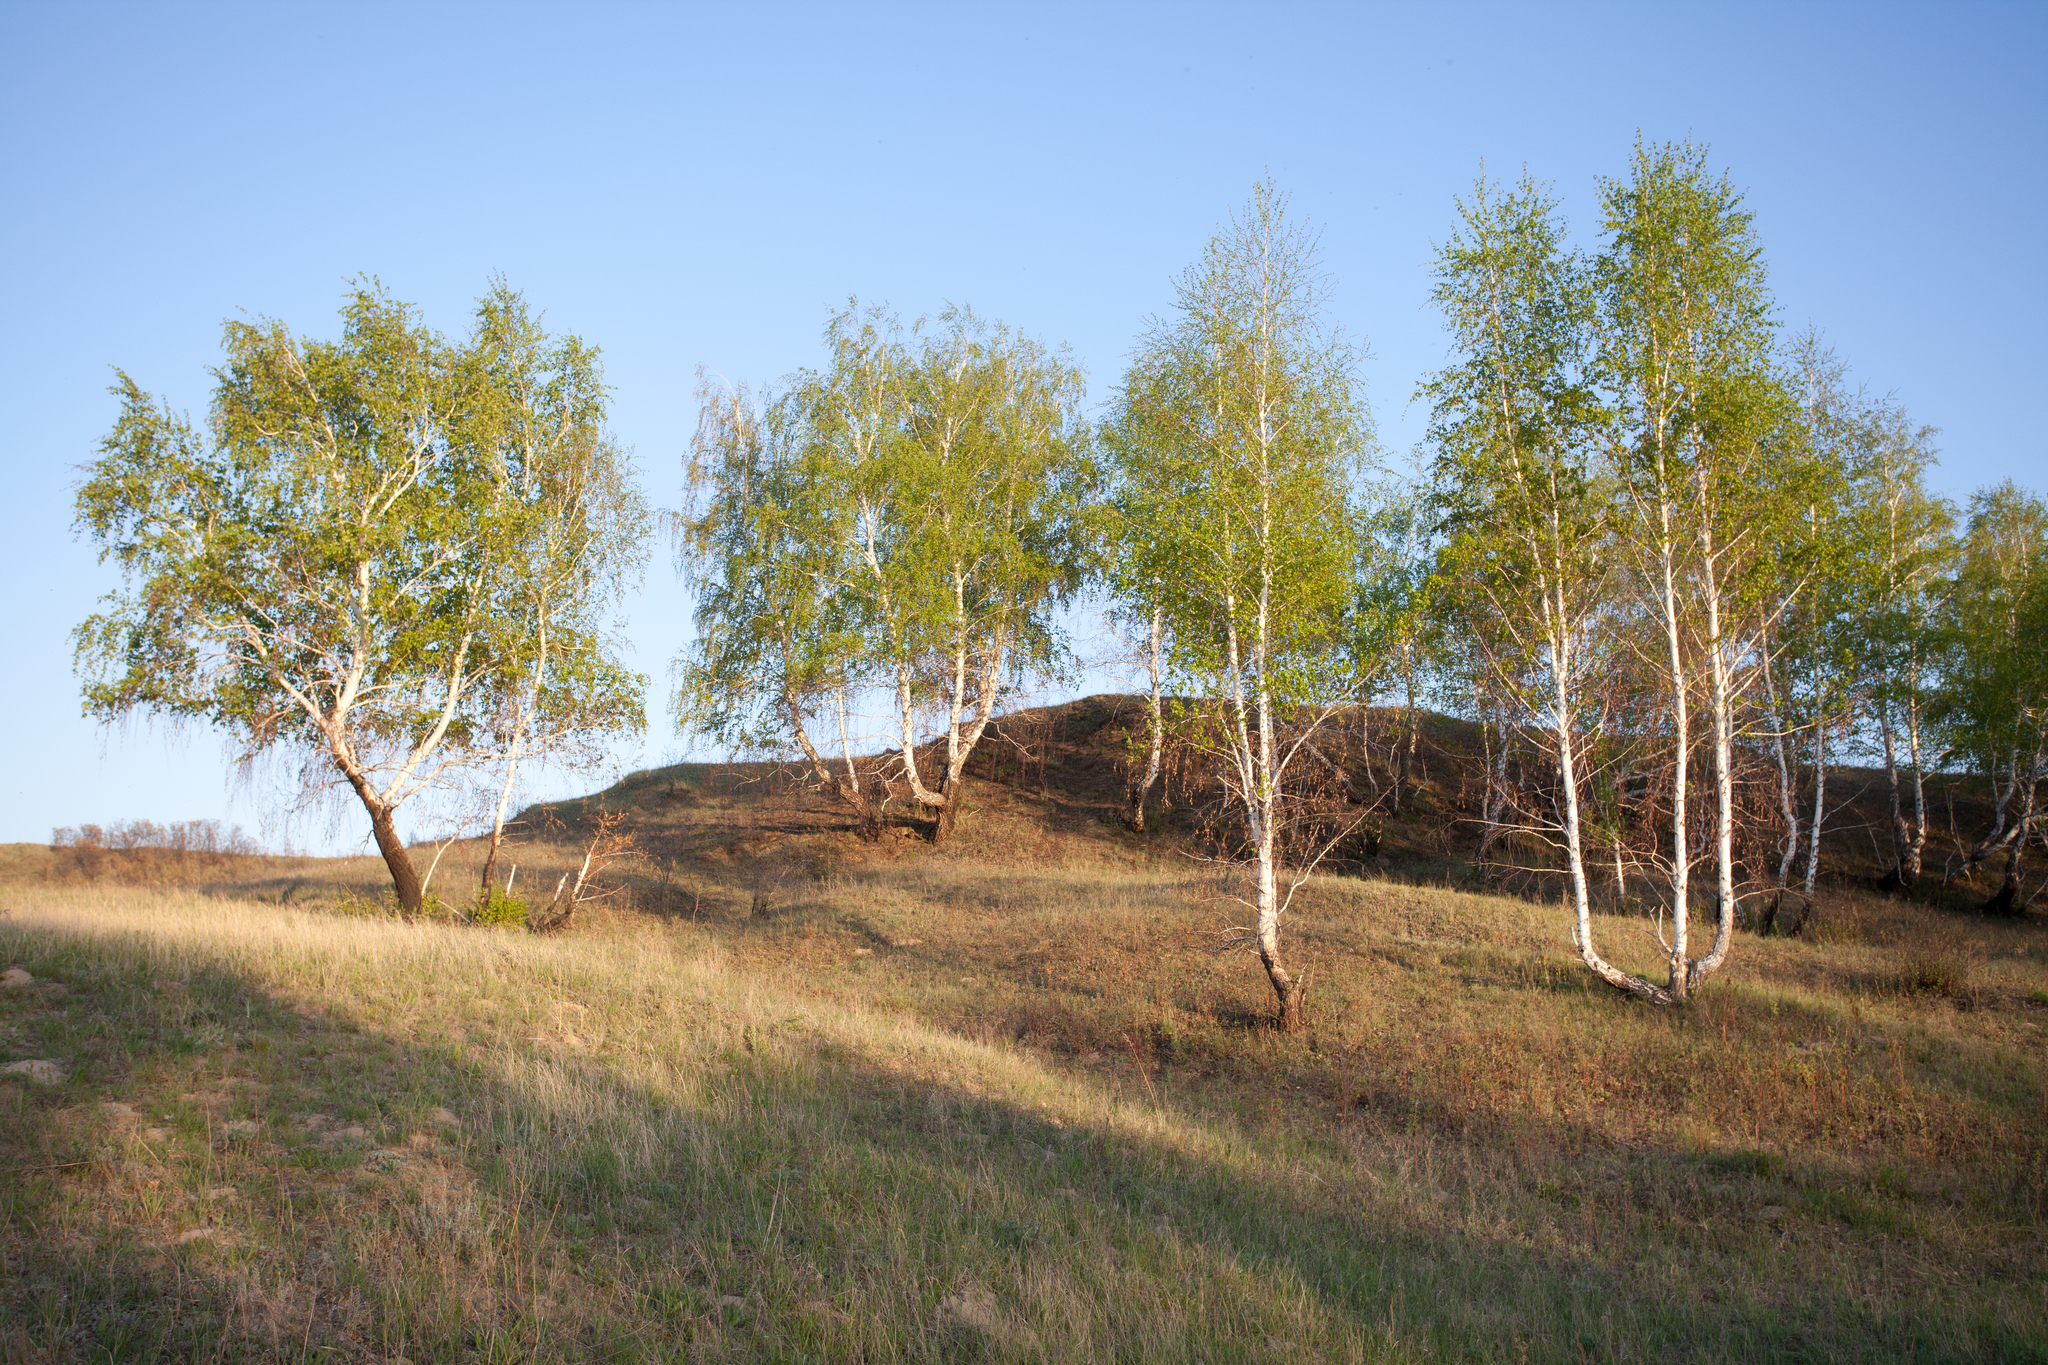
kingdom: Plantae
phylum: Tracheophyta
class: Magnoliopsida
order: Fagales
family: Betulaceae
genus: Betula
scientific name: Betula pendula
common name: Silver birch
